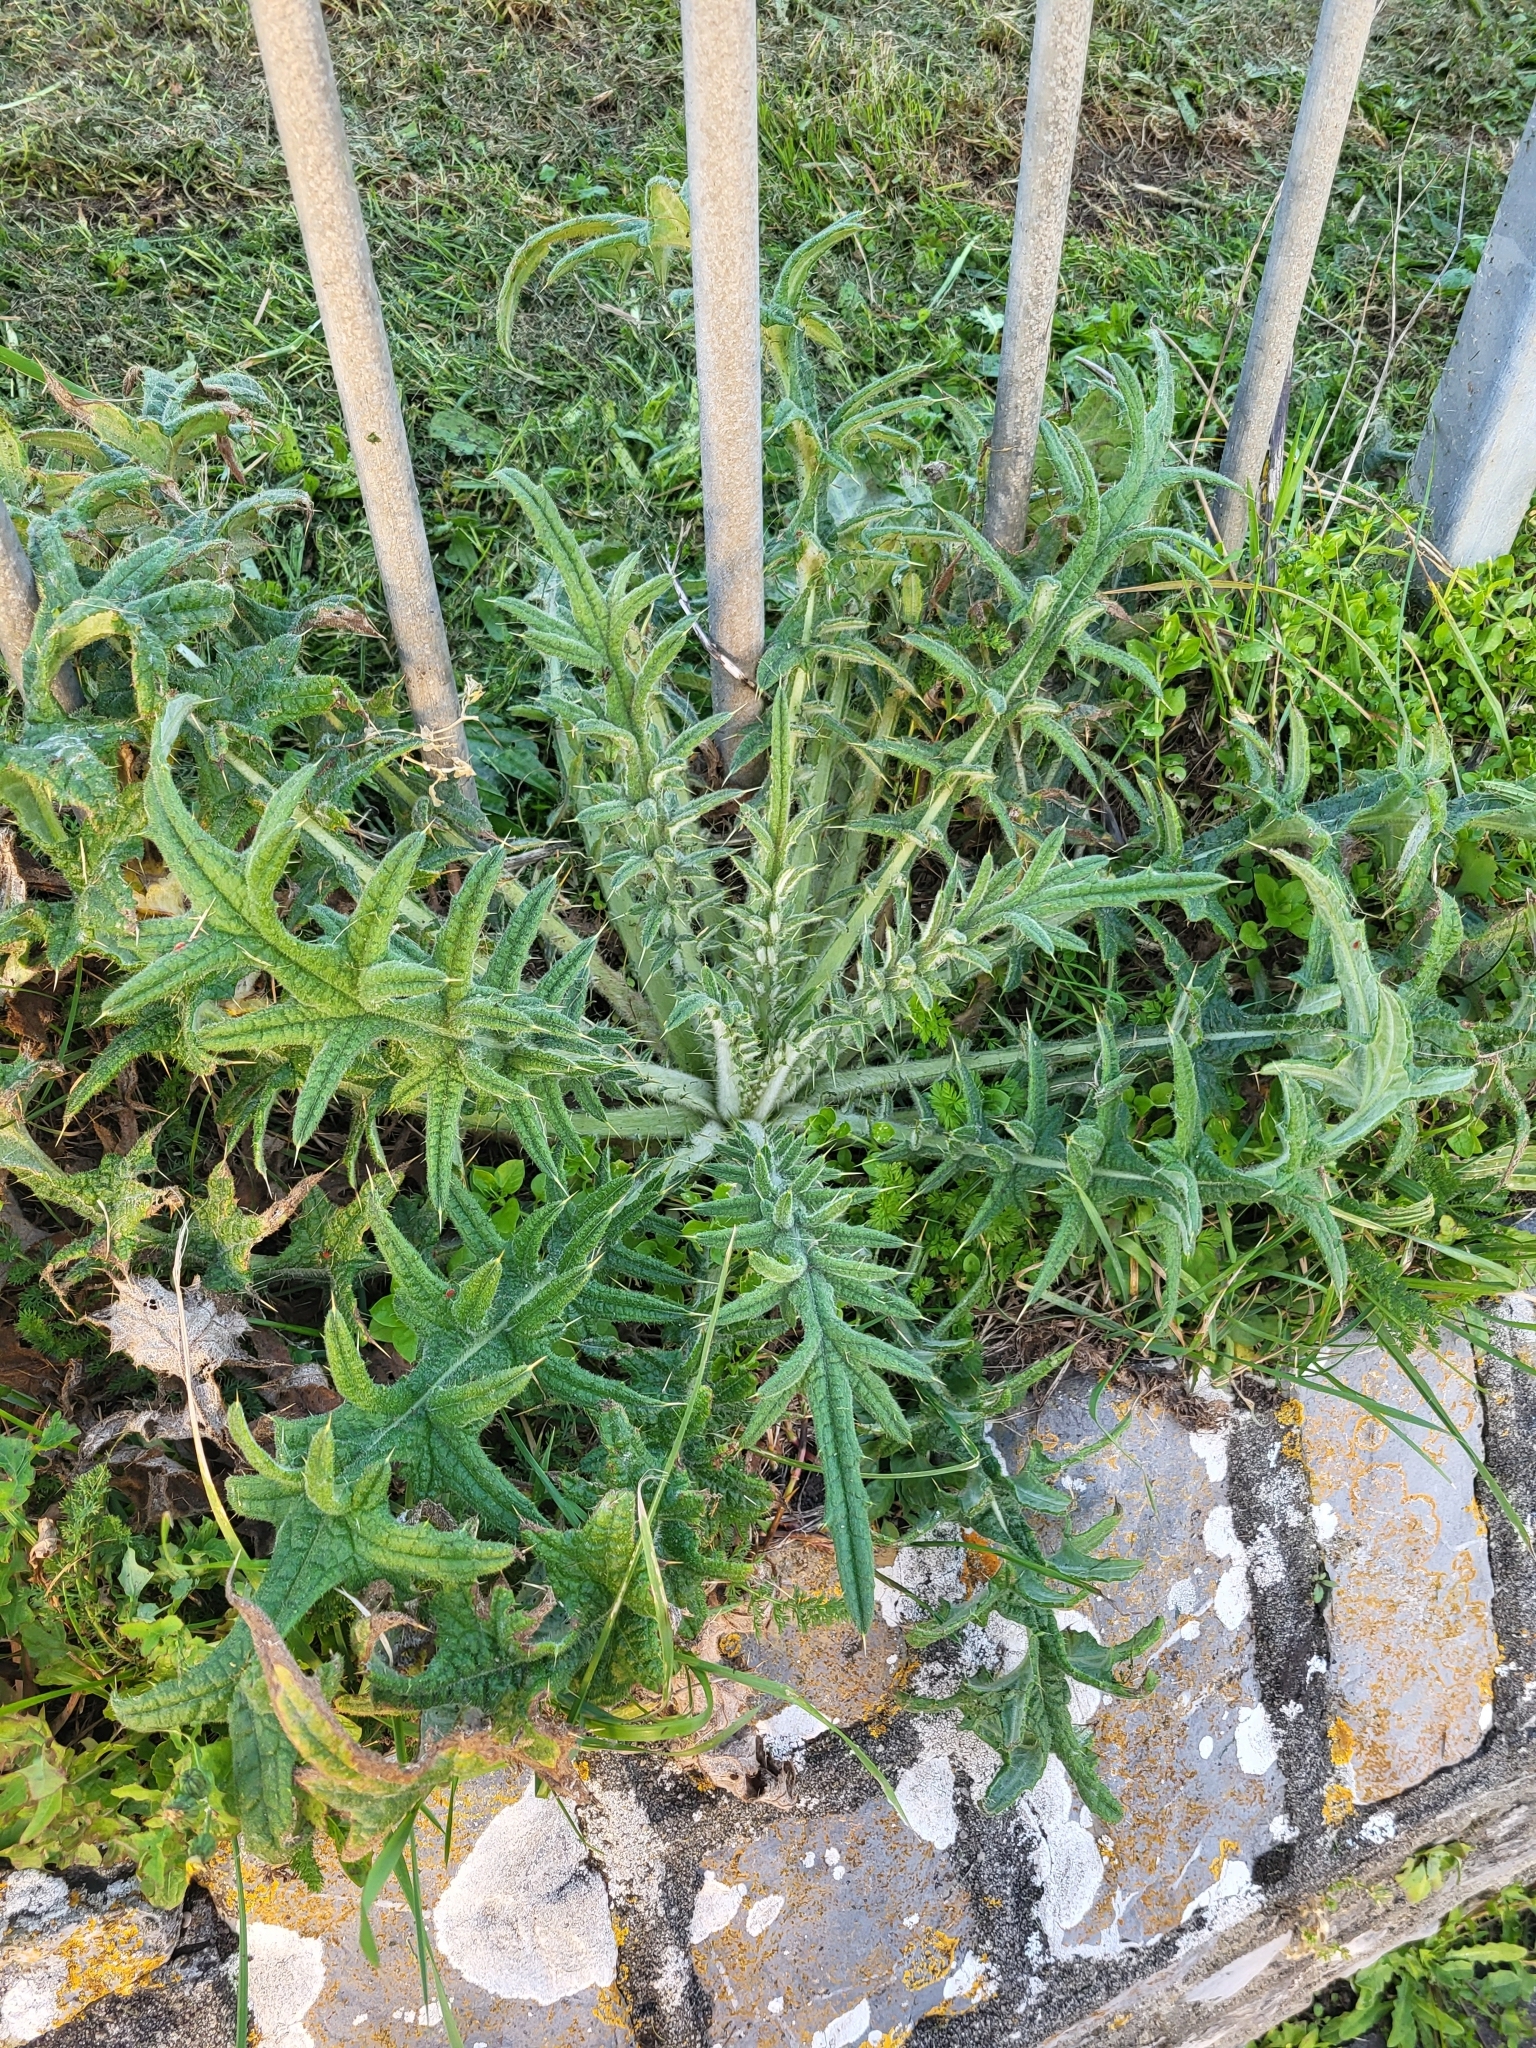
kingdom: Plantae
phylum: Tracheophyta
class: Magnoliopsida
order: Asterales
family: Asteraceae
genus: Cirsium
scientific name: Cirsium vulgare
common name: Bull thistle
